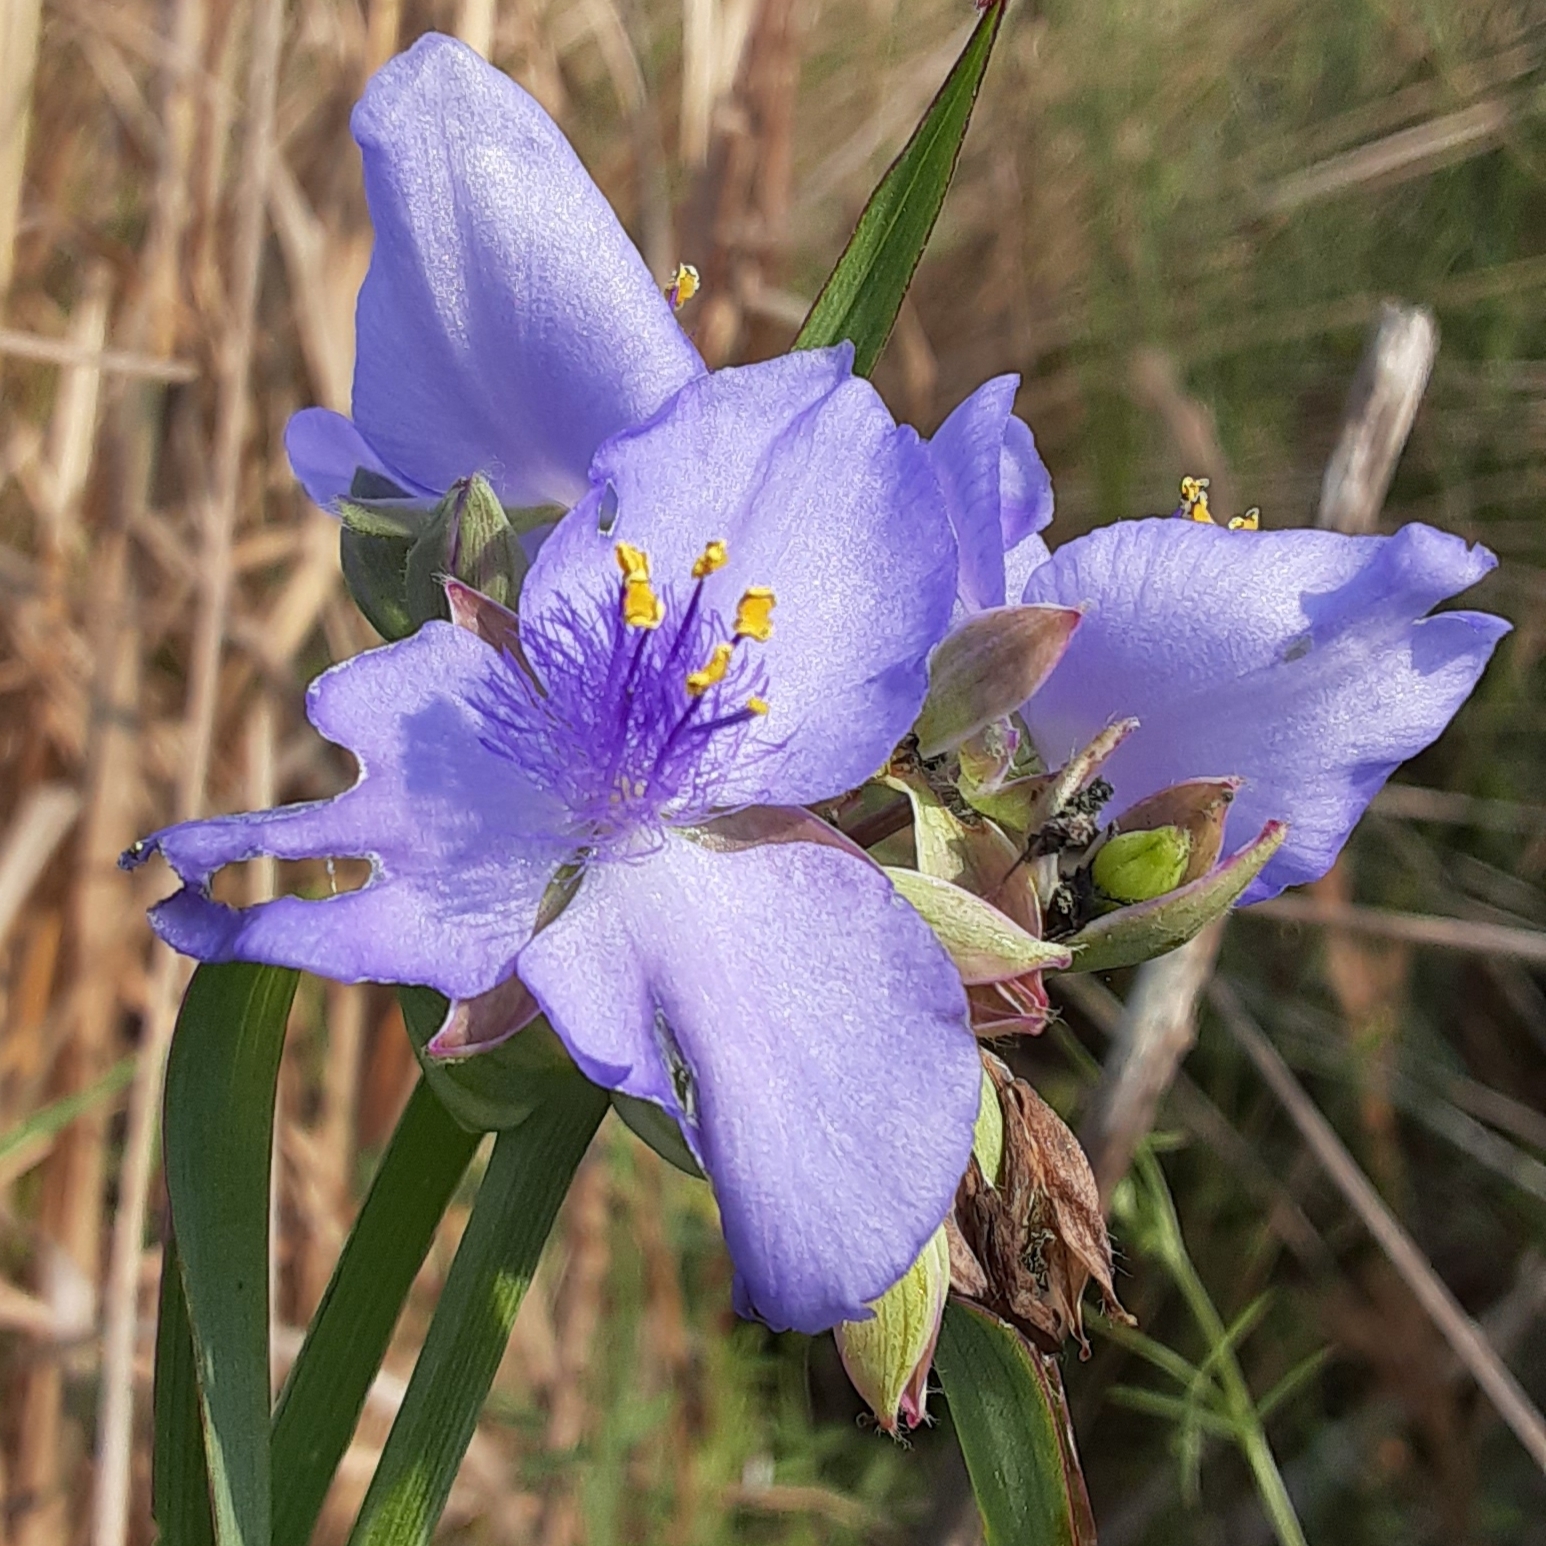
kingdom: Plantae
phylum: Tracheophyta
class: Liliopsida
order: Commelinales
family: Commelinaceae
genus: Tradescantia
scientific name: Tradescantia ohiensis
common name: Ohio spiderwort
